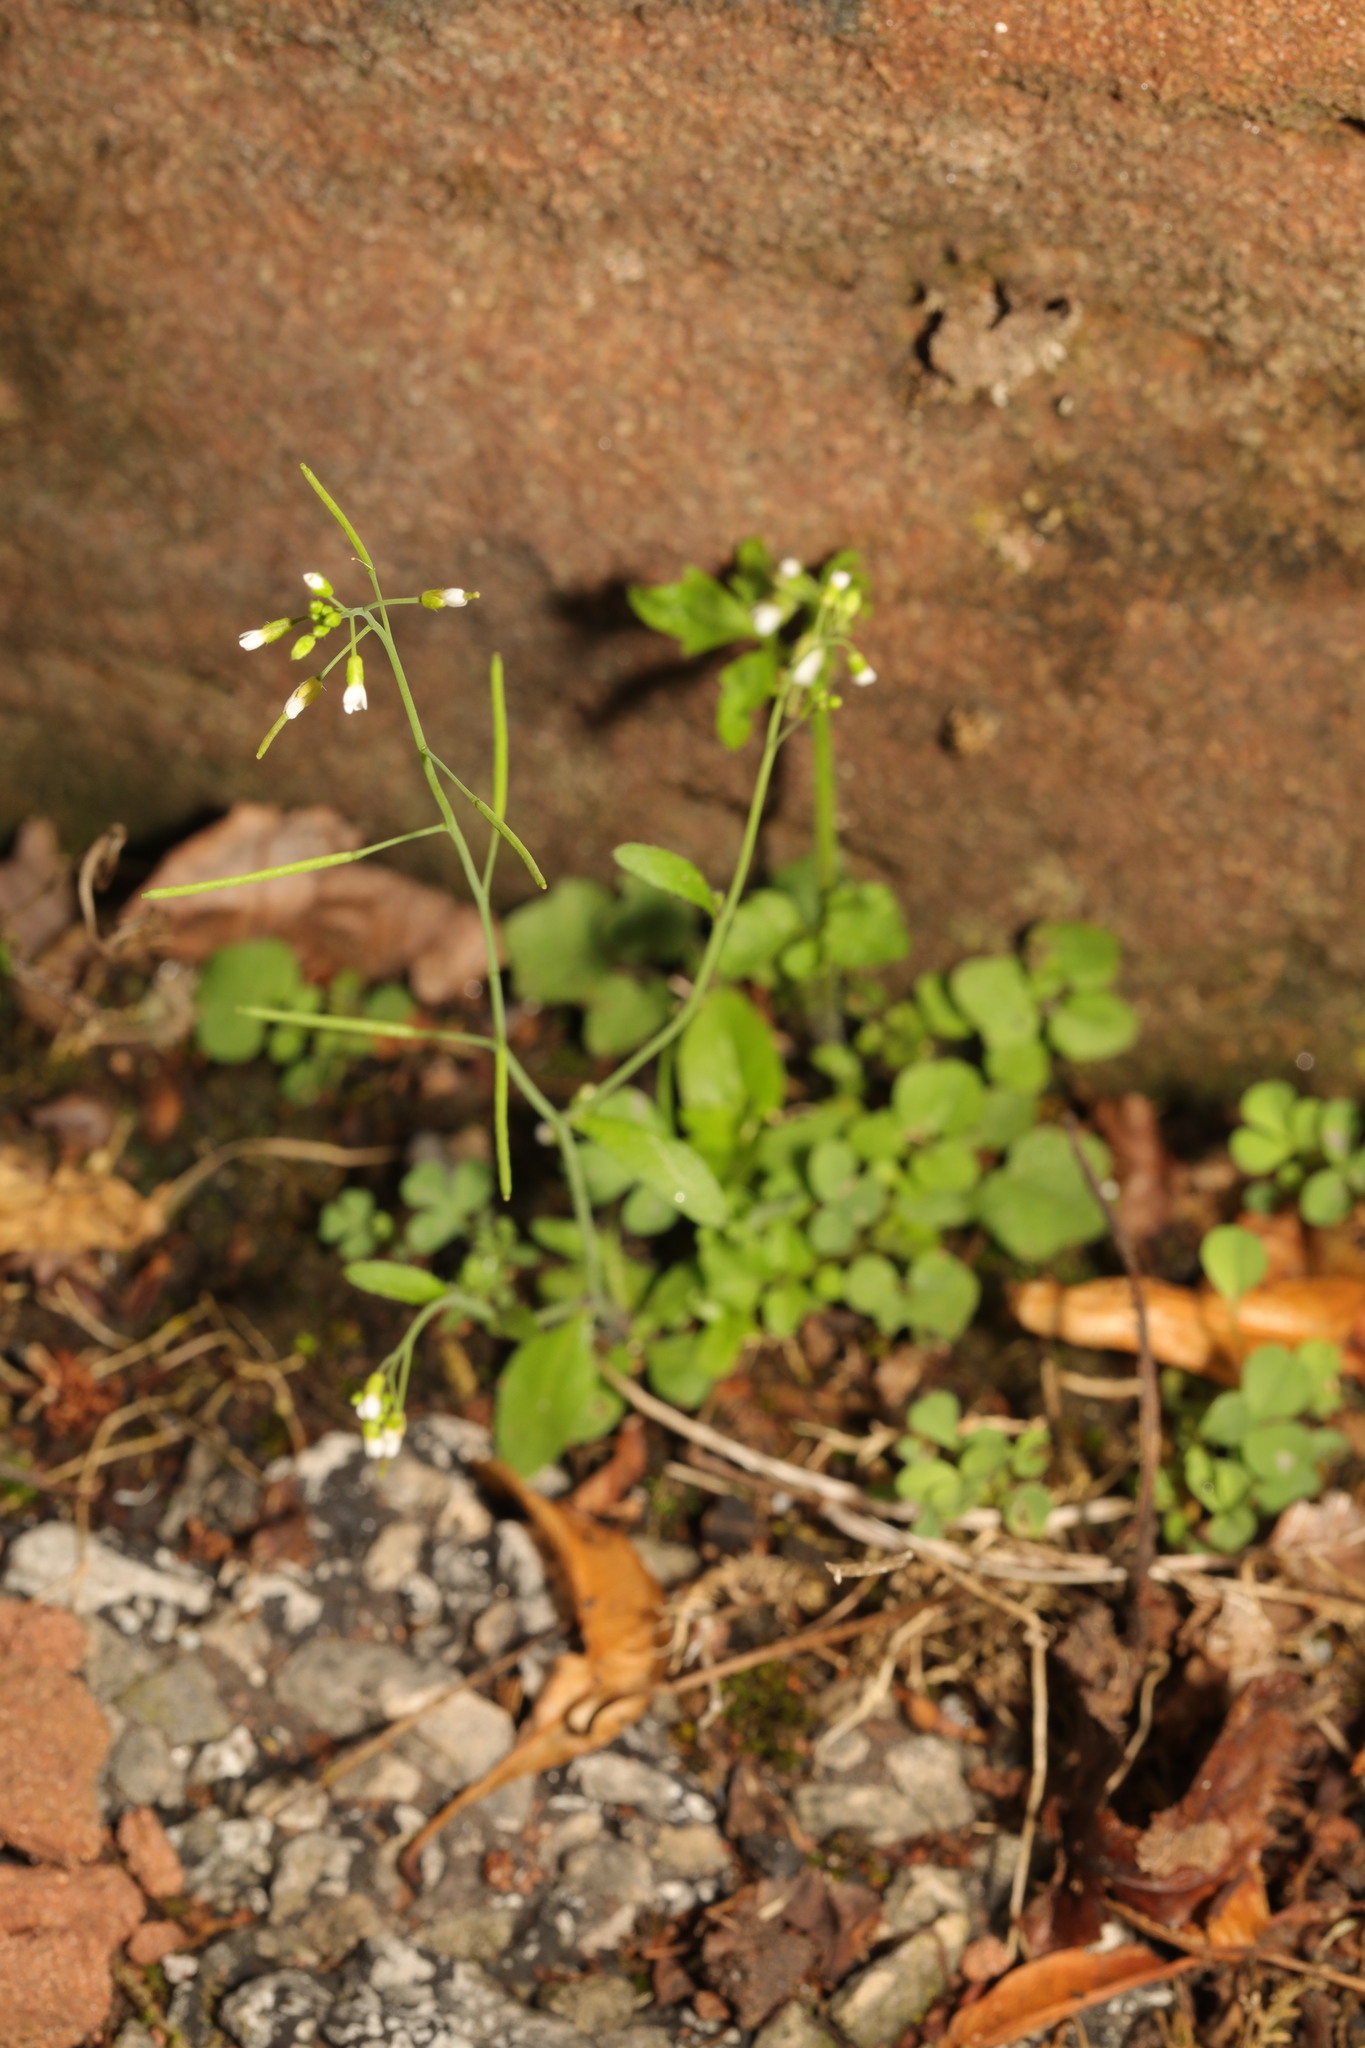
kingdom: Plantae
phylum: Tracheophyta
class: Magnoliopsida
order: Brassicales
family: Brassicaceae
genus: Arabidopsis
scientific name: Arabidopsis thaliana
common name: Thale cress
